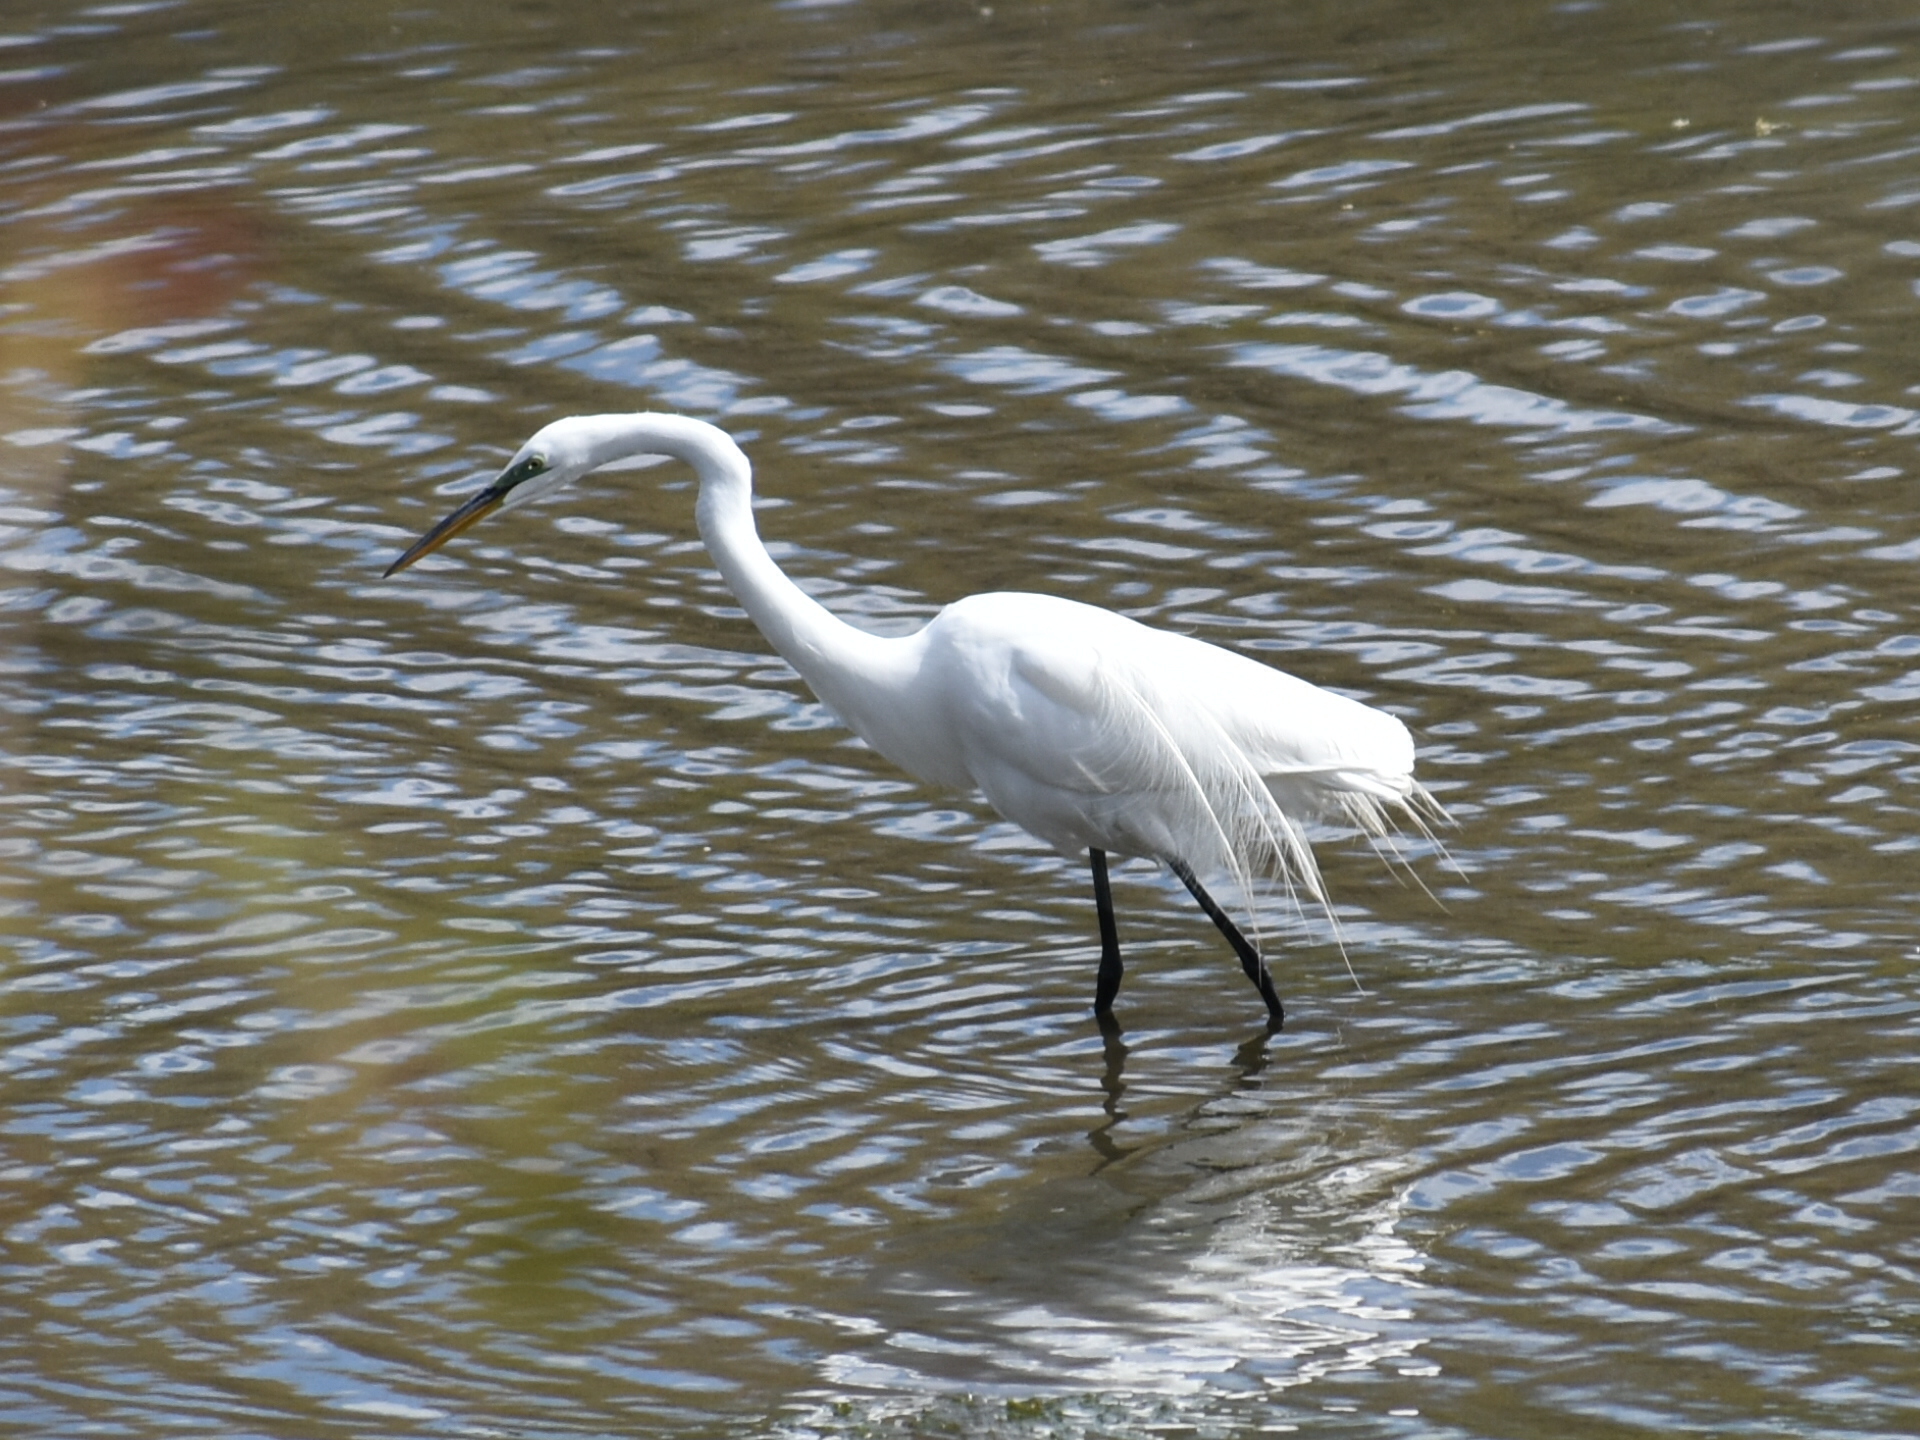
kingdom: Animalia
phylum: Chordata
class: Aves
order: Pelecaniformes
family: Ardeidae
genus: Ardea
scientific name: Ardea alba
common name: Great egret
